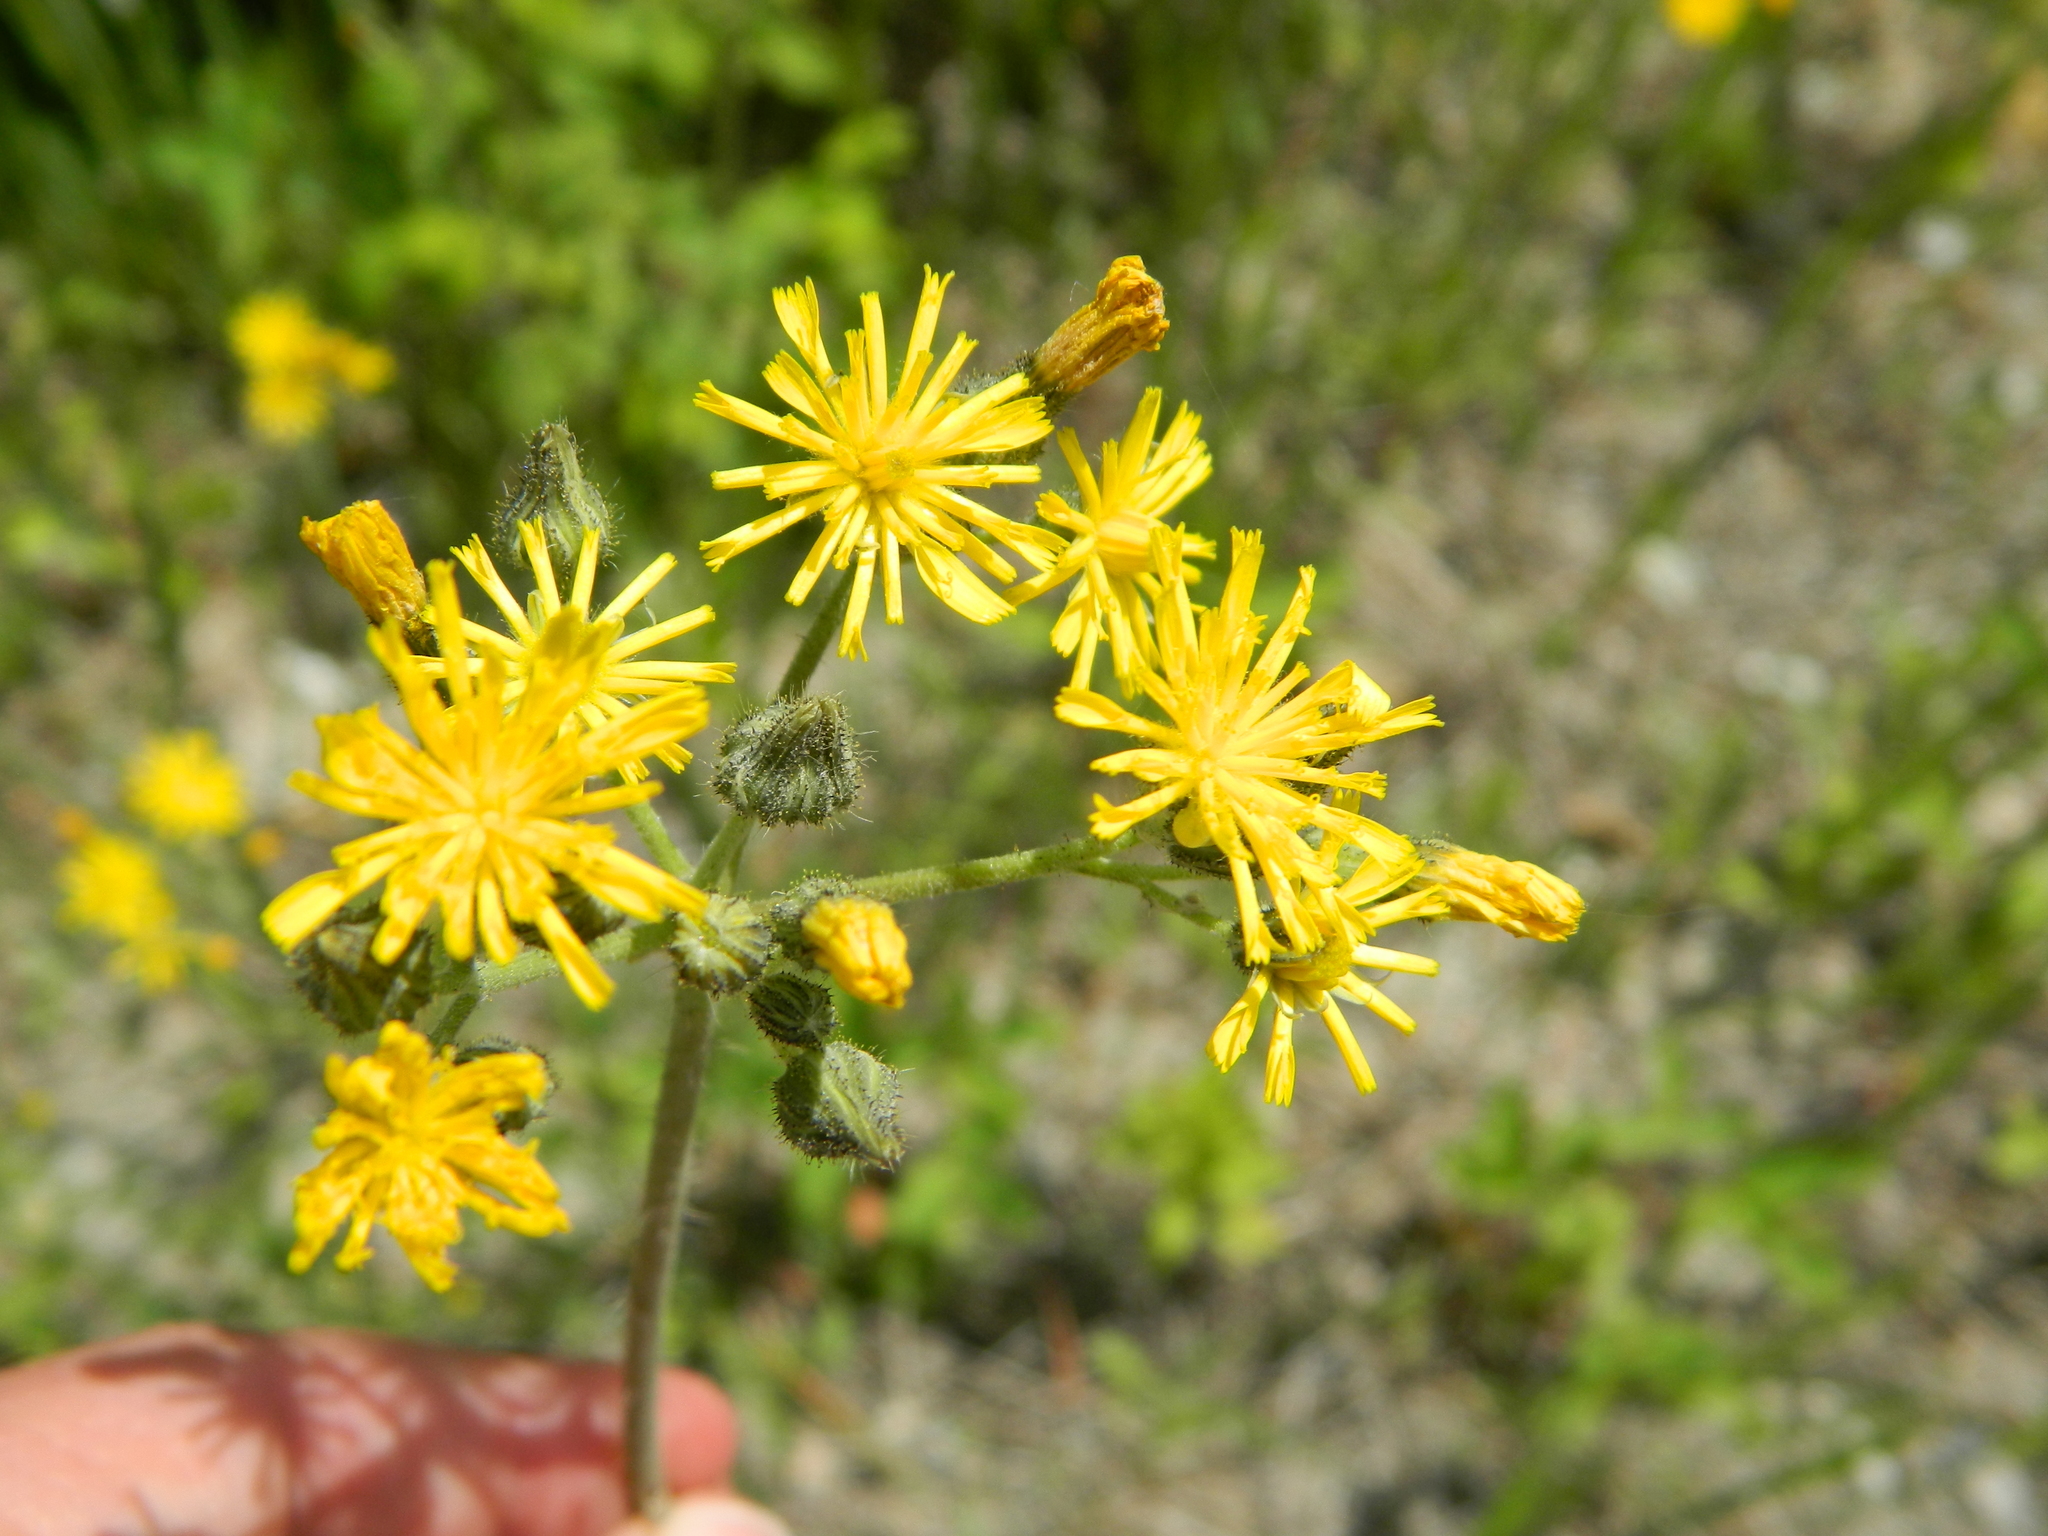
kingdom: Plantae
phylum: Tracheophyta
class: Magnoliopsida
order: Asterales
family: Asteraceae
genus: Pilosella
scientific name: Pilosella caespitosa
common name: Yellow fox-and-cubs
